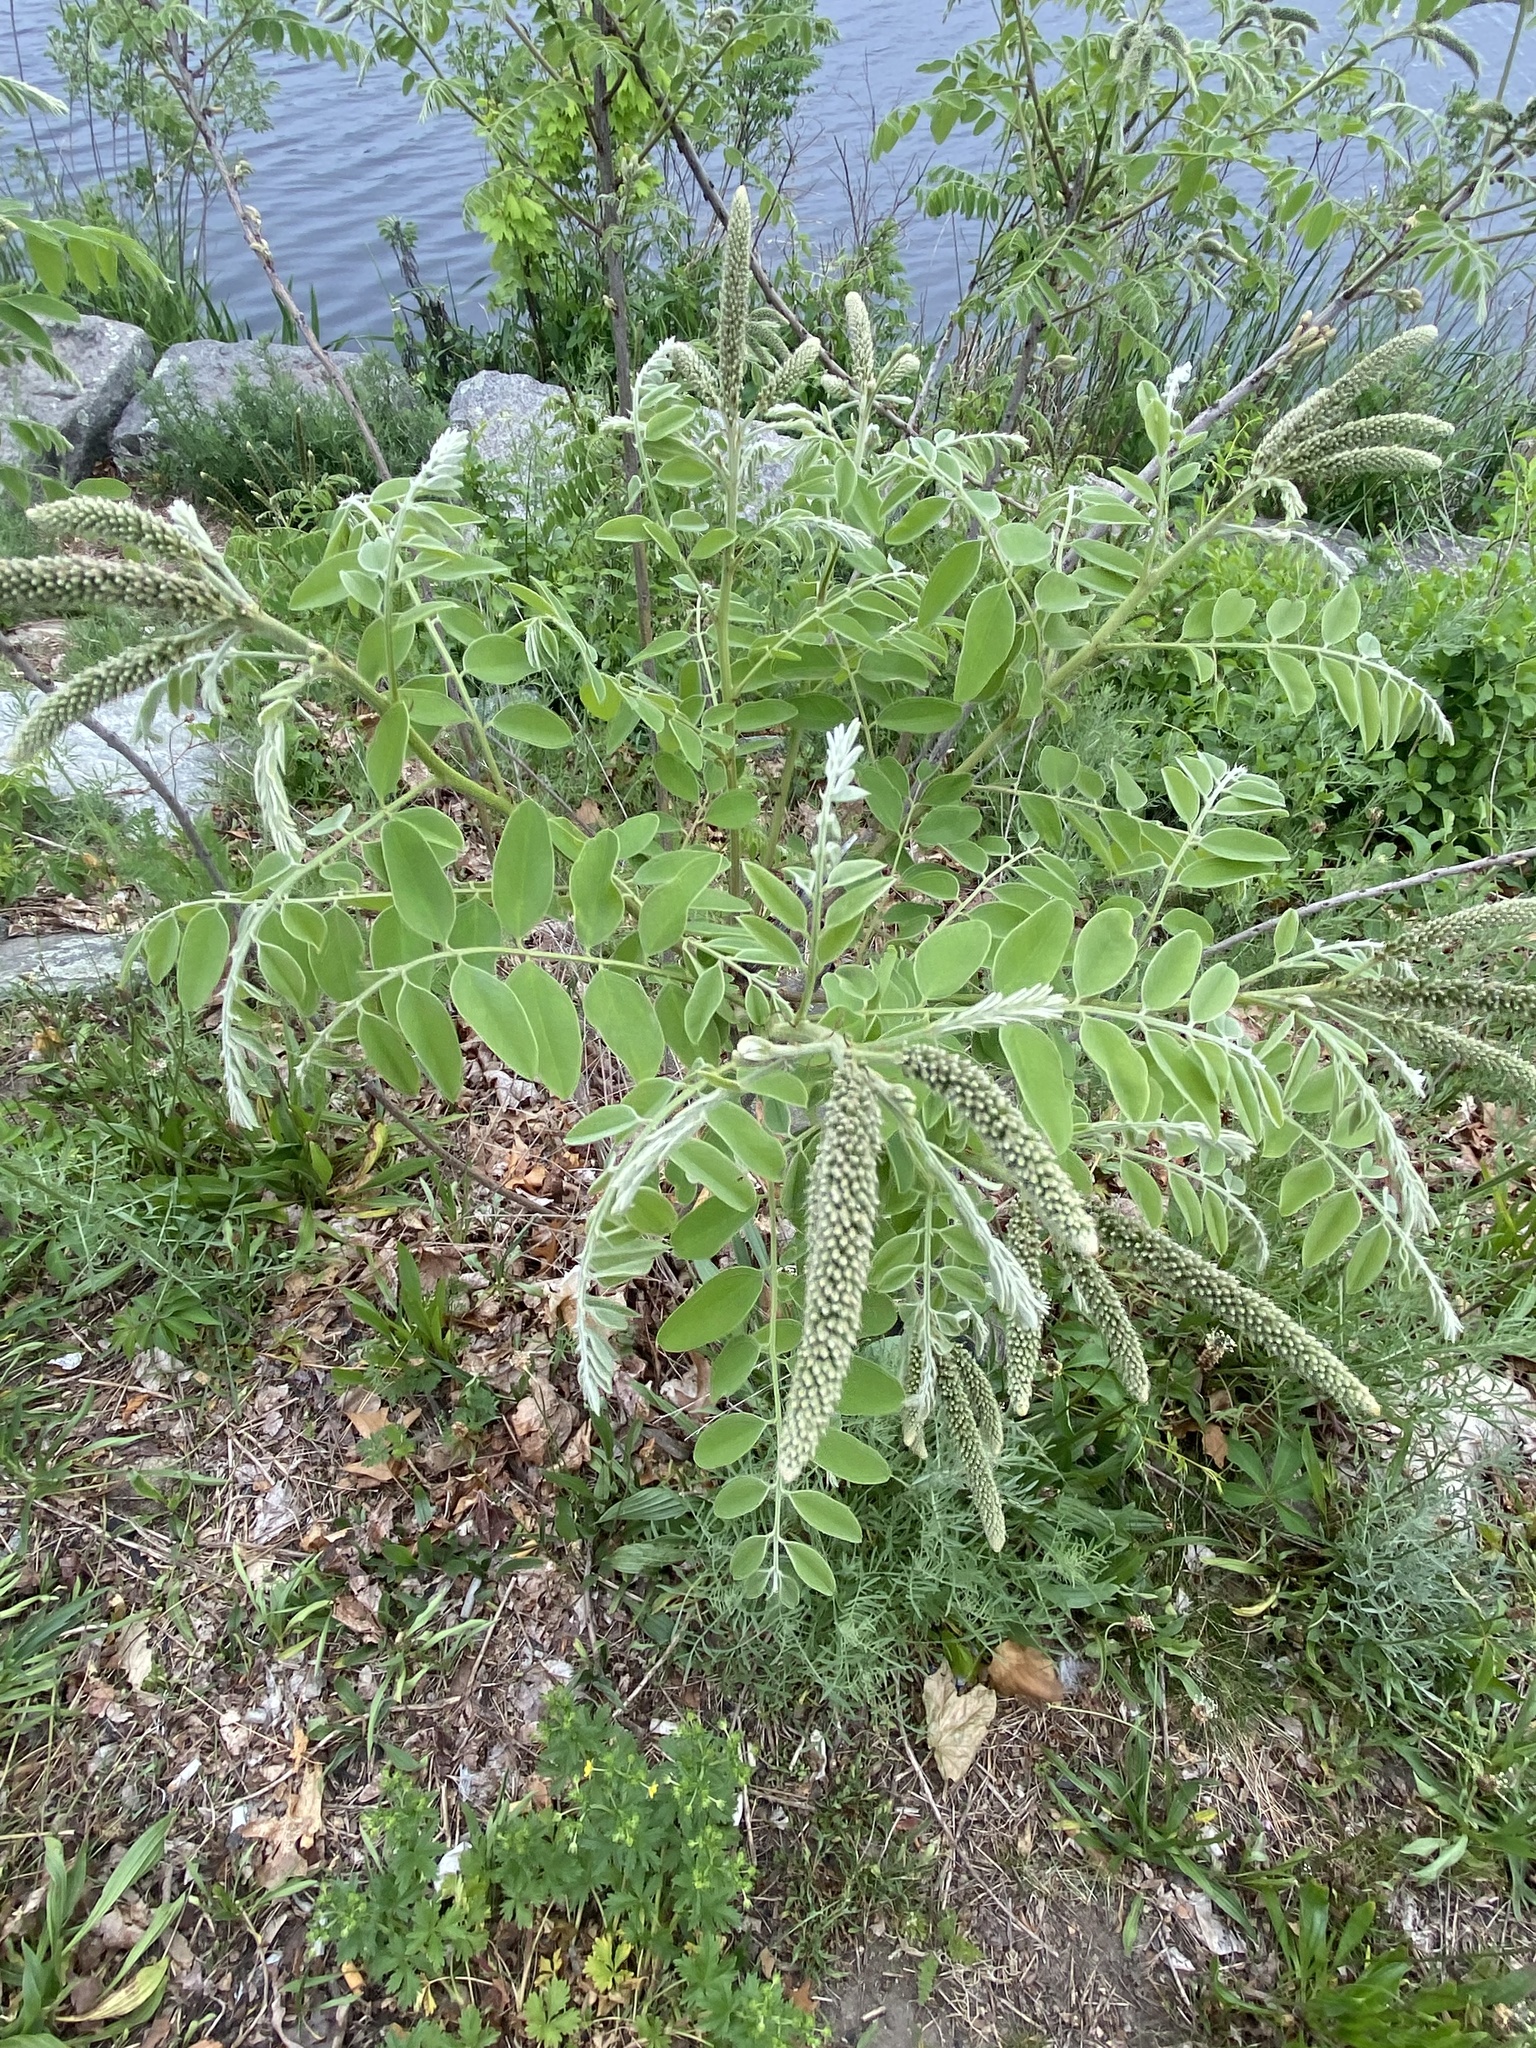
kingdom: Plantae
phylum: Tracheophyta
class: Magnoliopsida
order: Fabales
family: Fabaceae
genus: Amorpha
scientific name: Amorpha fruticosa
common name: False indigo
